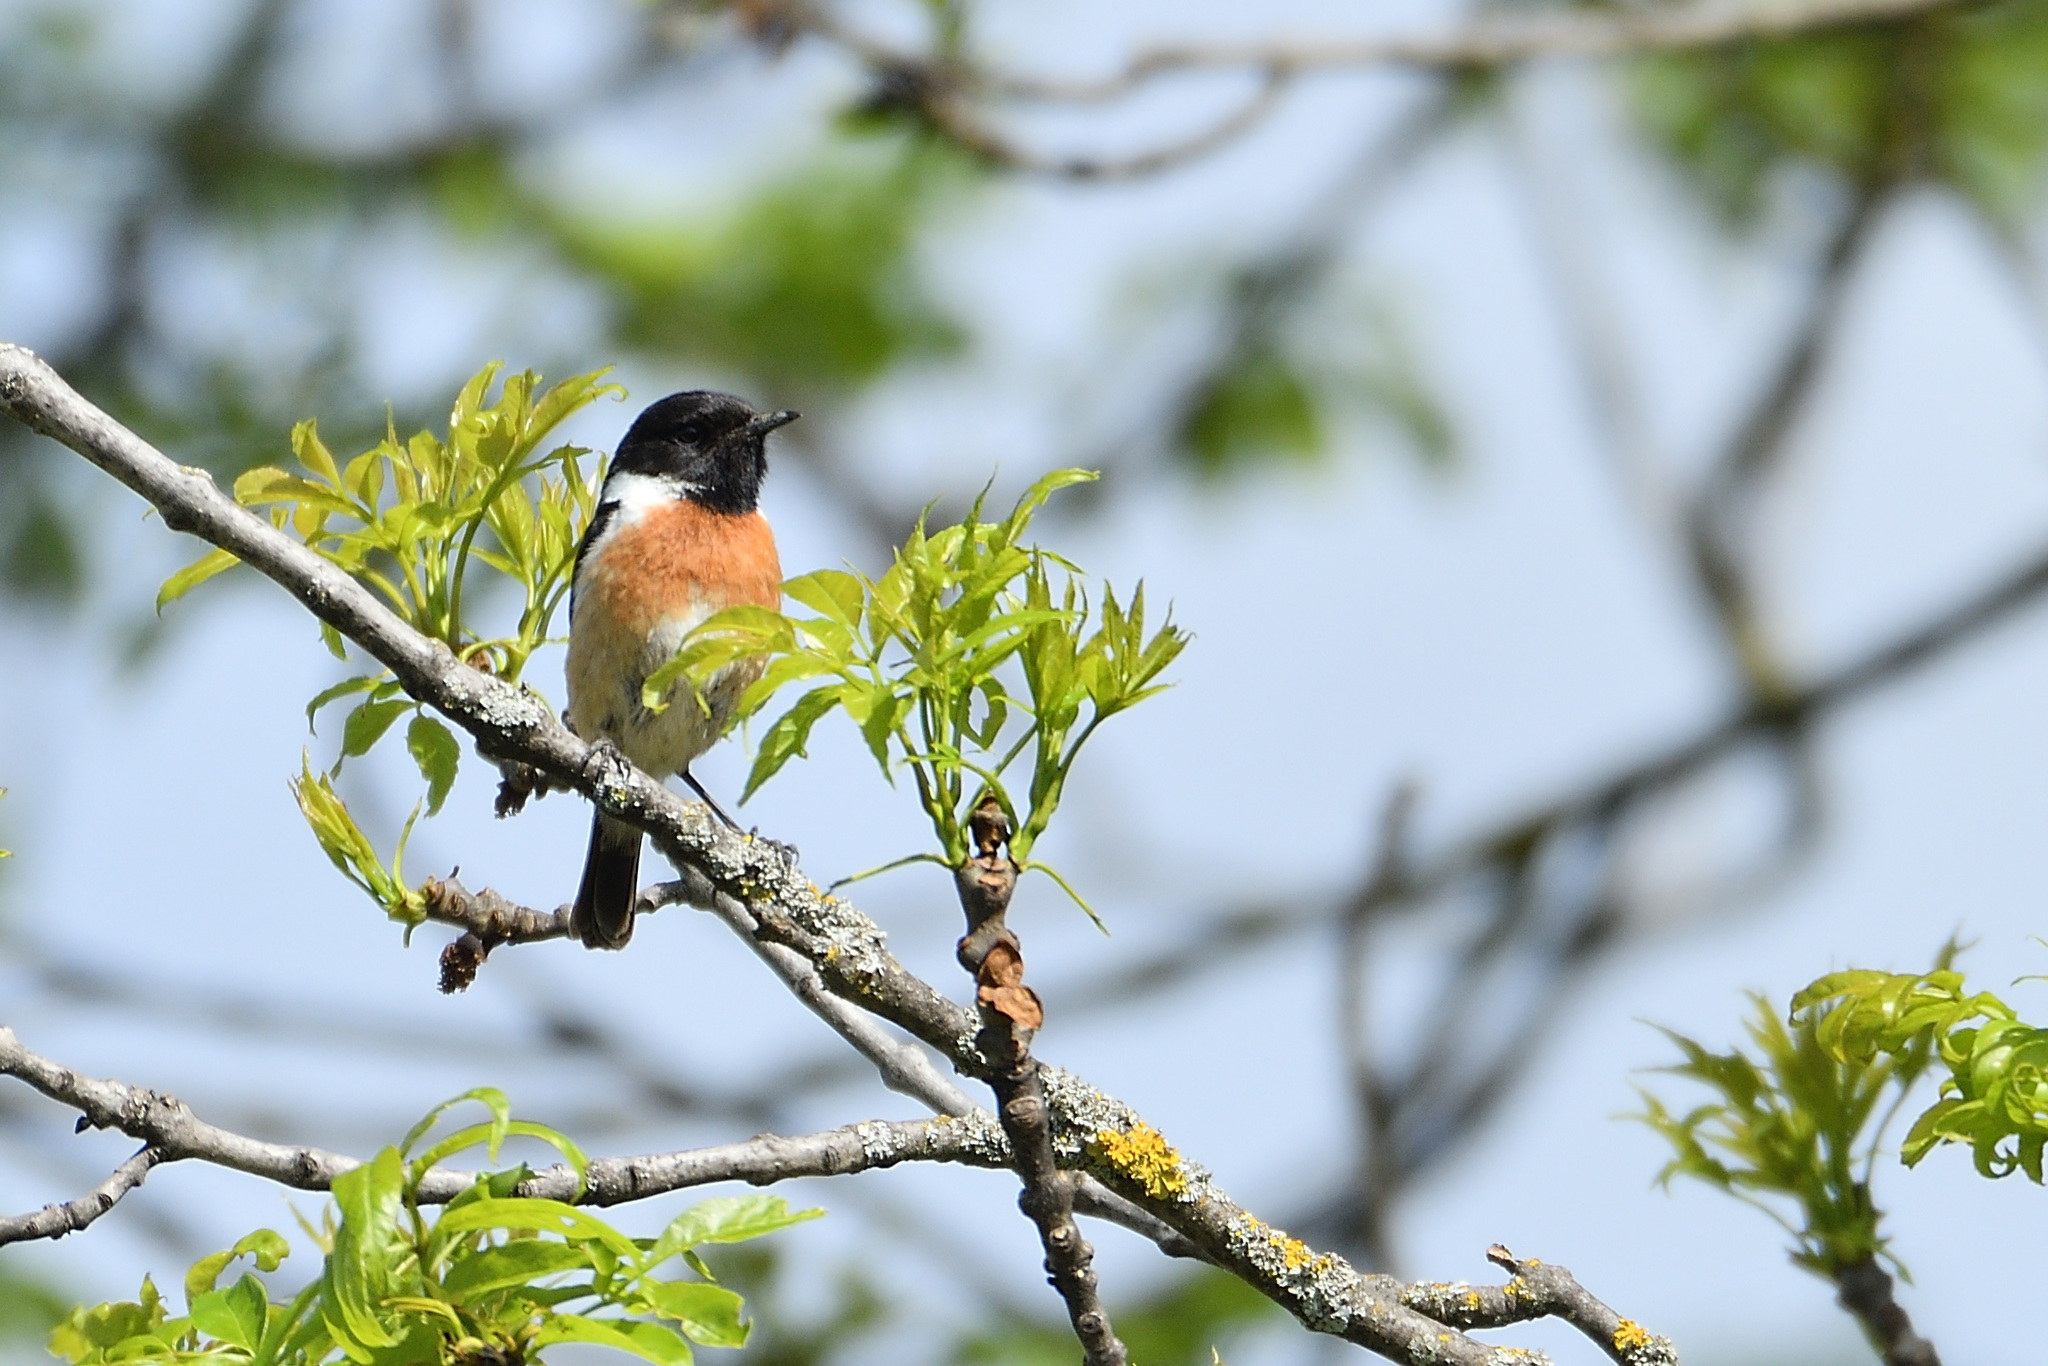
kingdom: Animalia
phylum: Chordata
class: Aves
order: Passeriformes
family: Muscicapidae
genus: Saxicola
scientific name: Saxicola rubicola
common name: European stonechat
